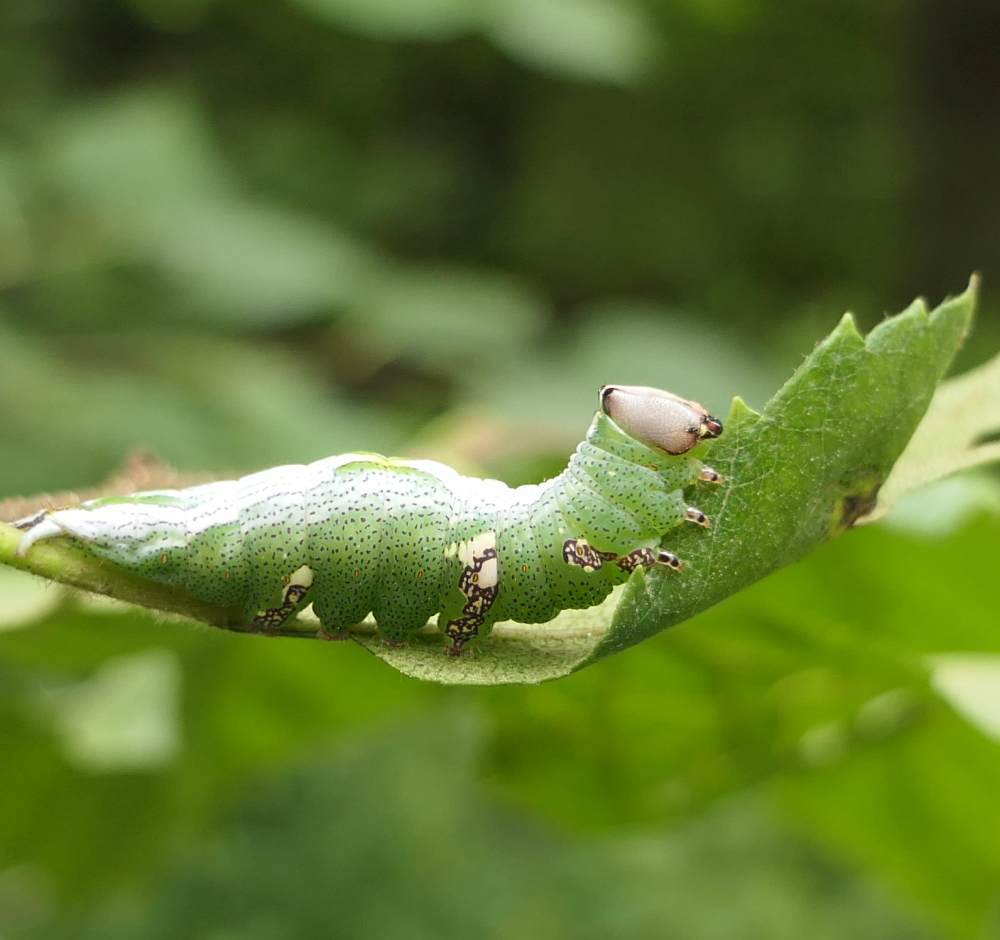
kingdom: Animalia
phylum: Arthropoda
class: Insecta
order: Lepidoptera
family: Notodontidae
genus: Disphragis
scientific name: Disphragis Cecrita biundata
